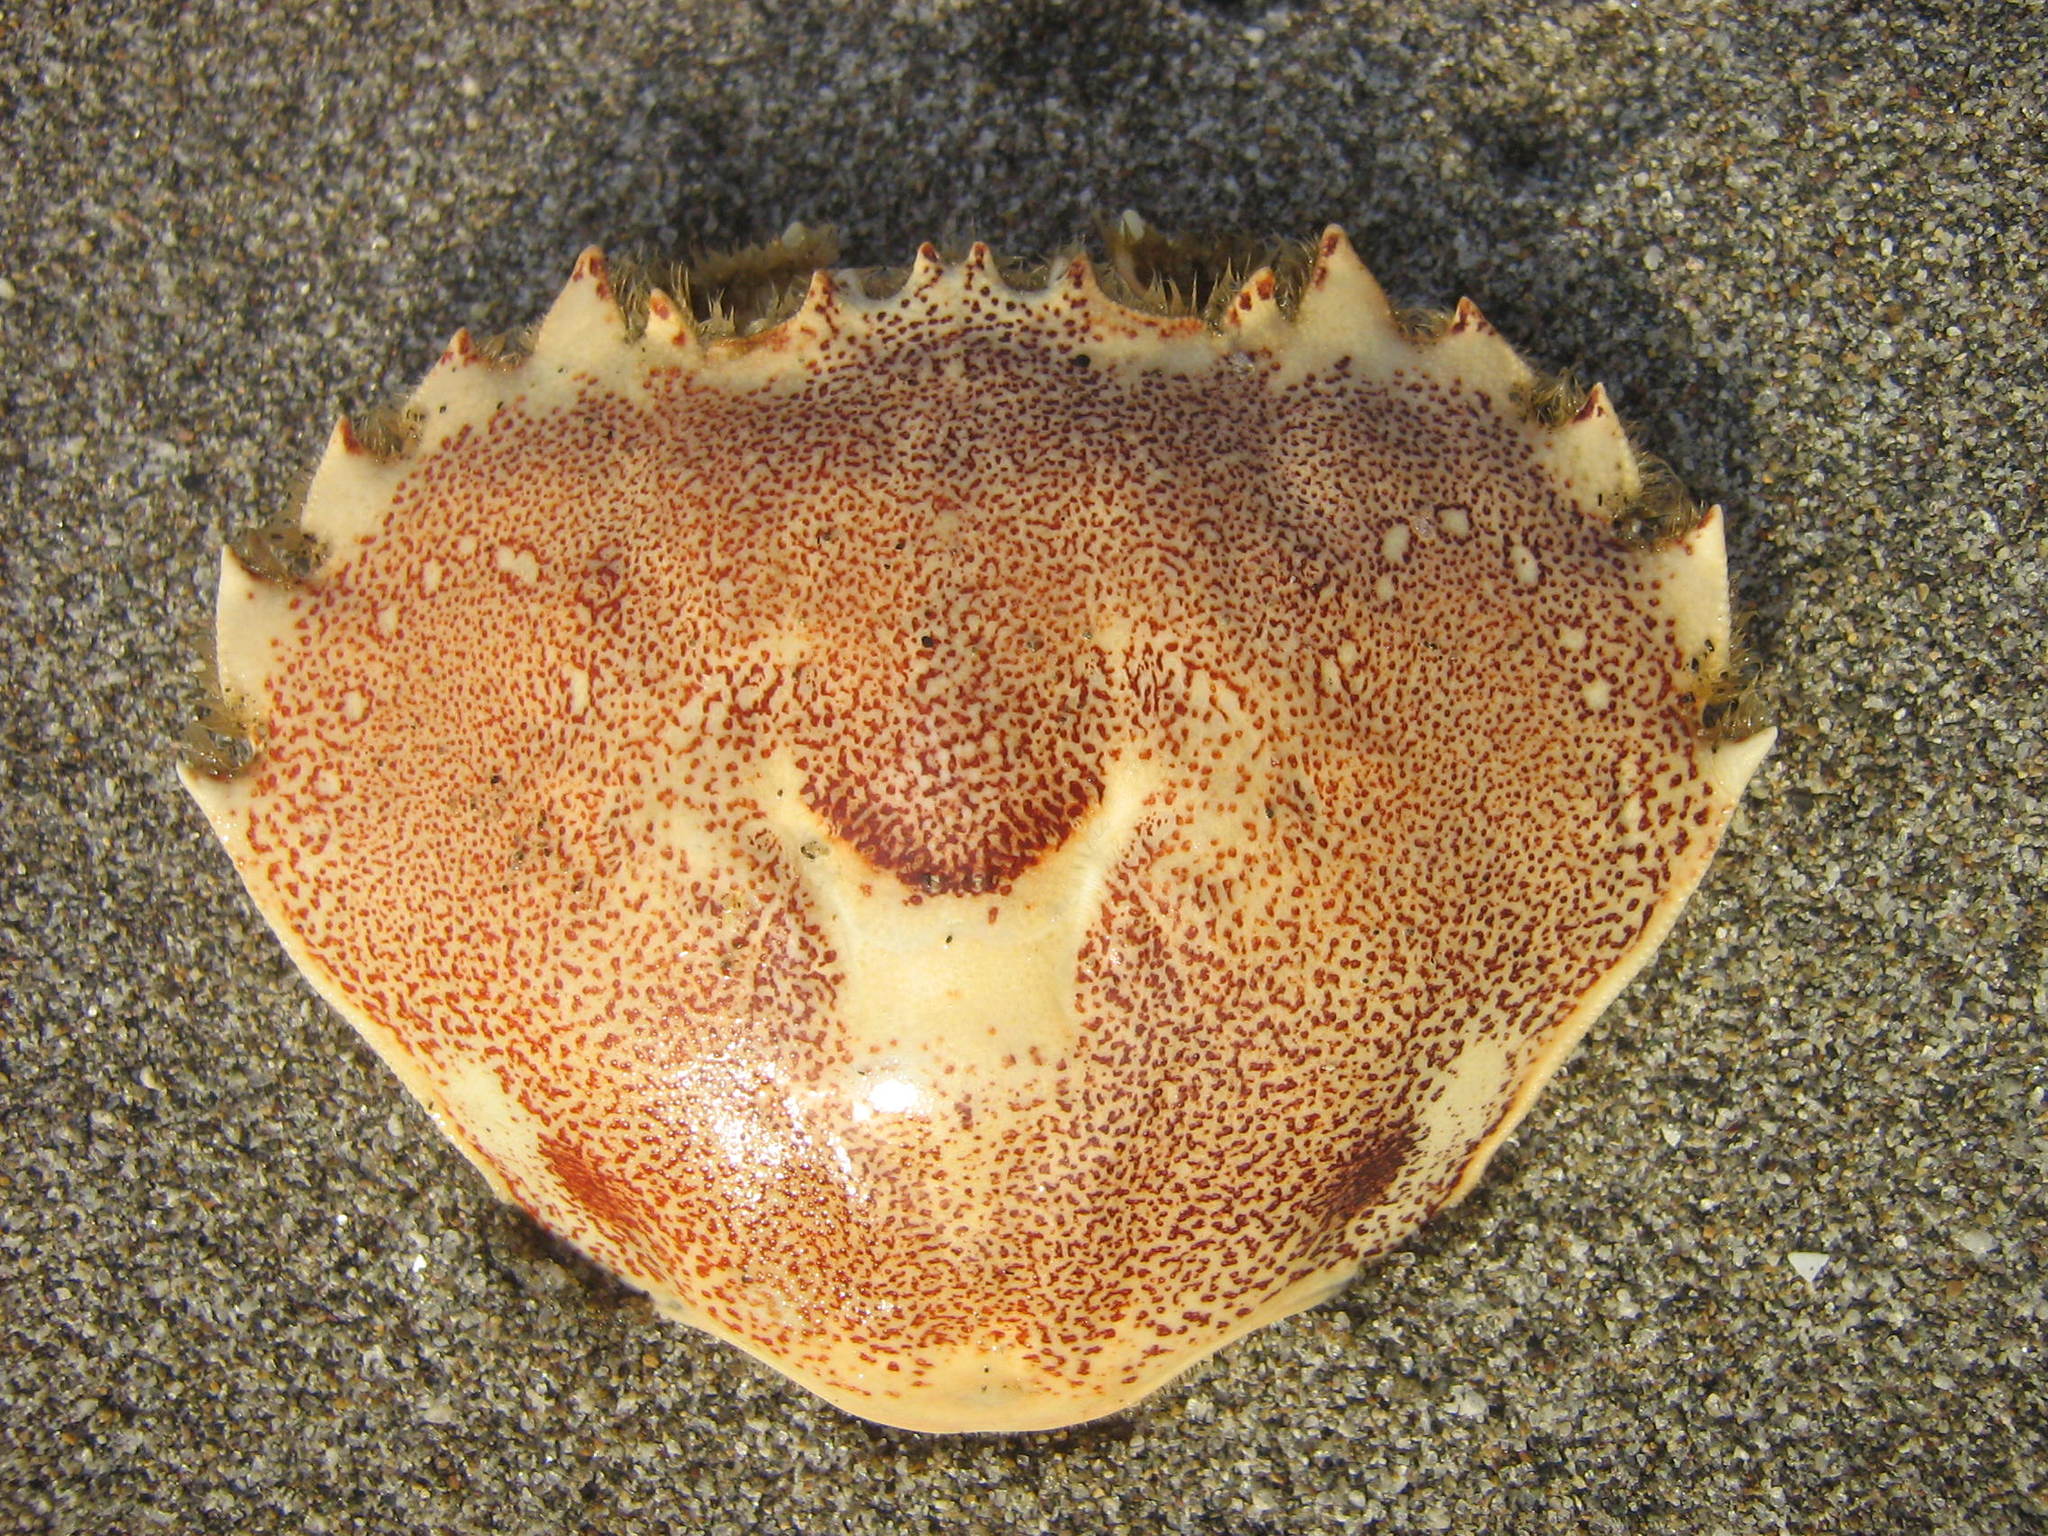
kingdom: Animalia
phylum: Arthropoda
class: Malacostraca
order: Decapoda
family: Ovalipidae
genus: Ovalipes
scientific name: Ovalipes trimaculatus
